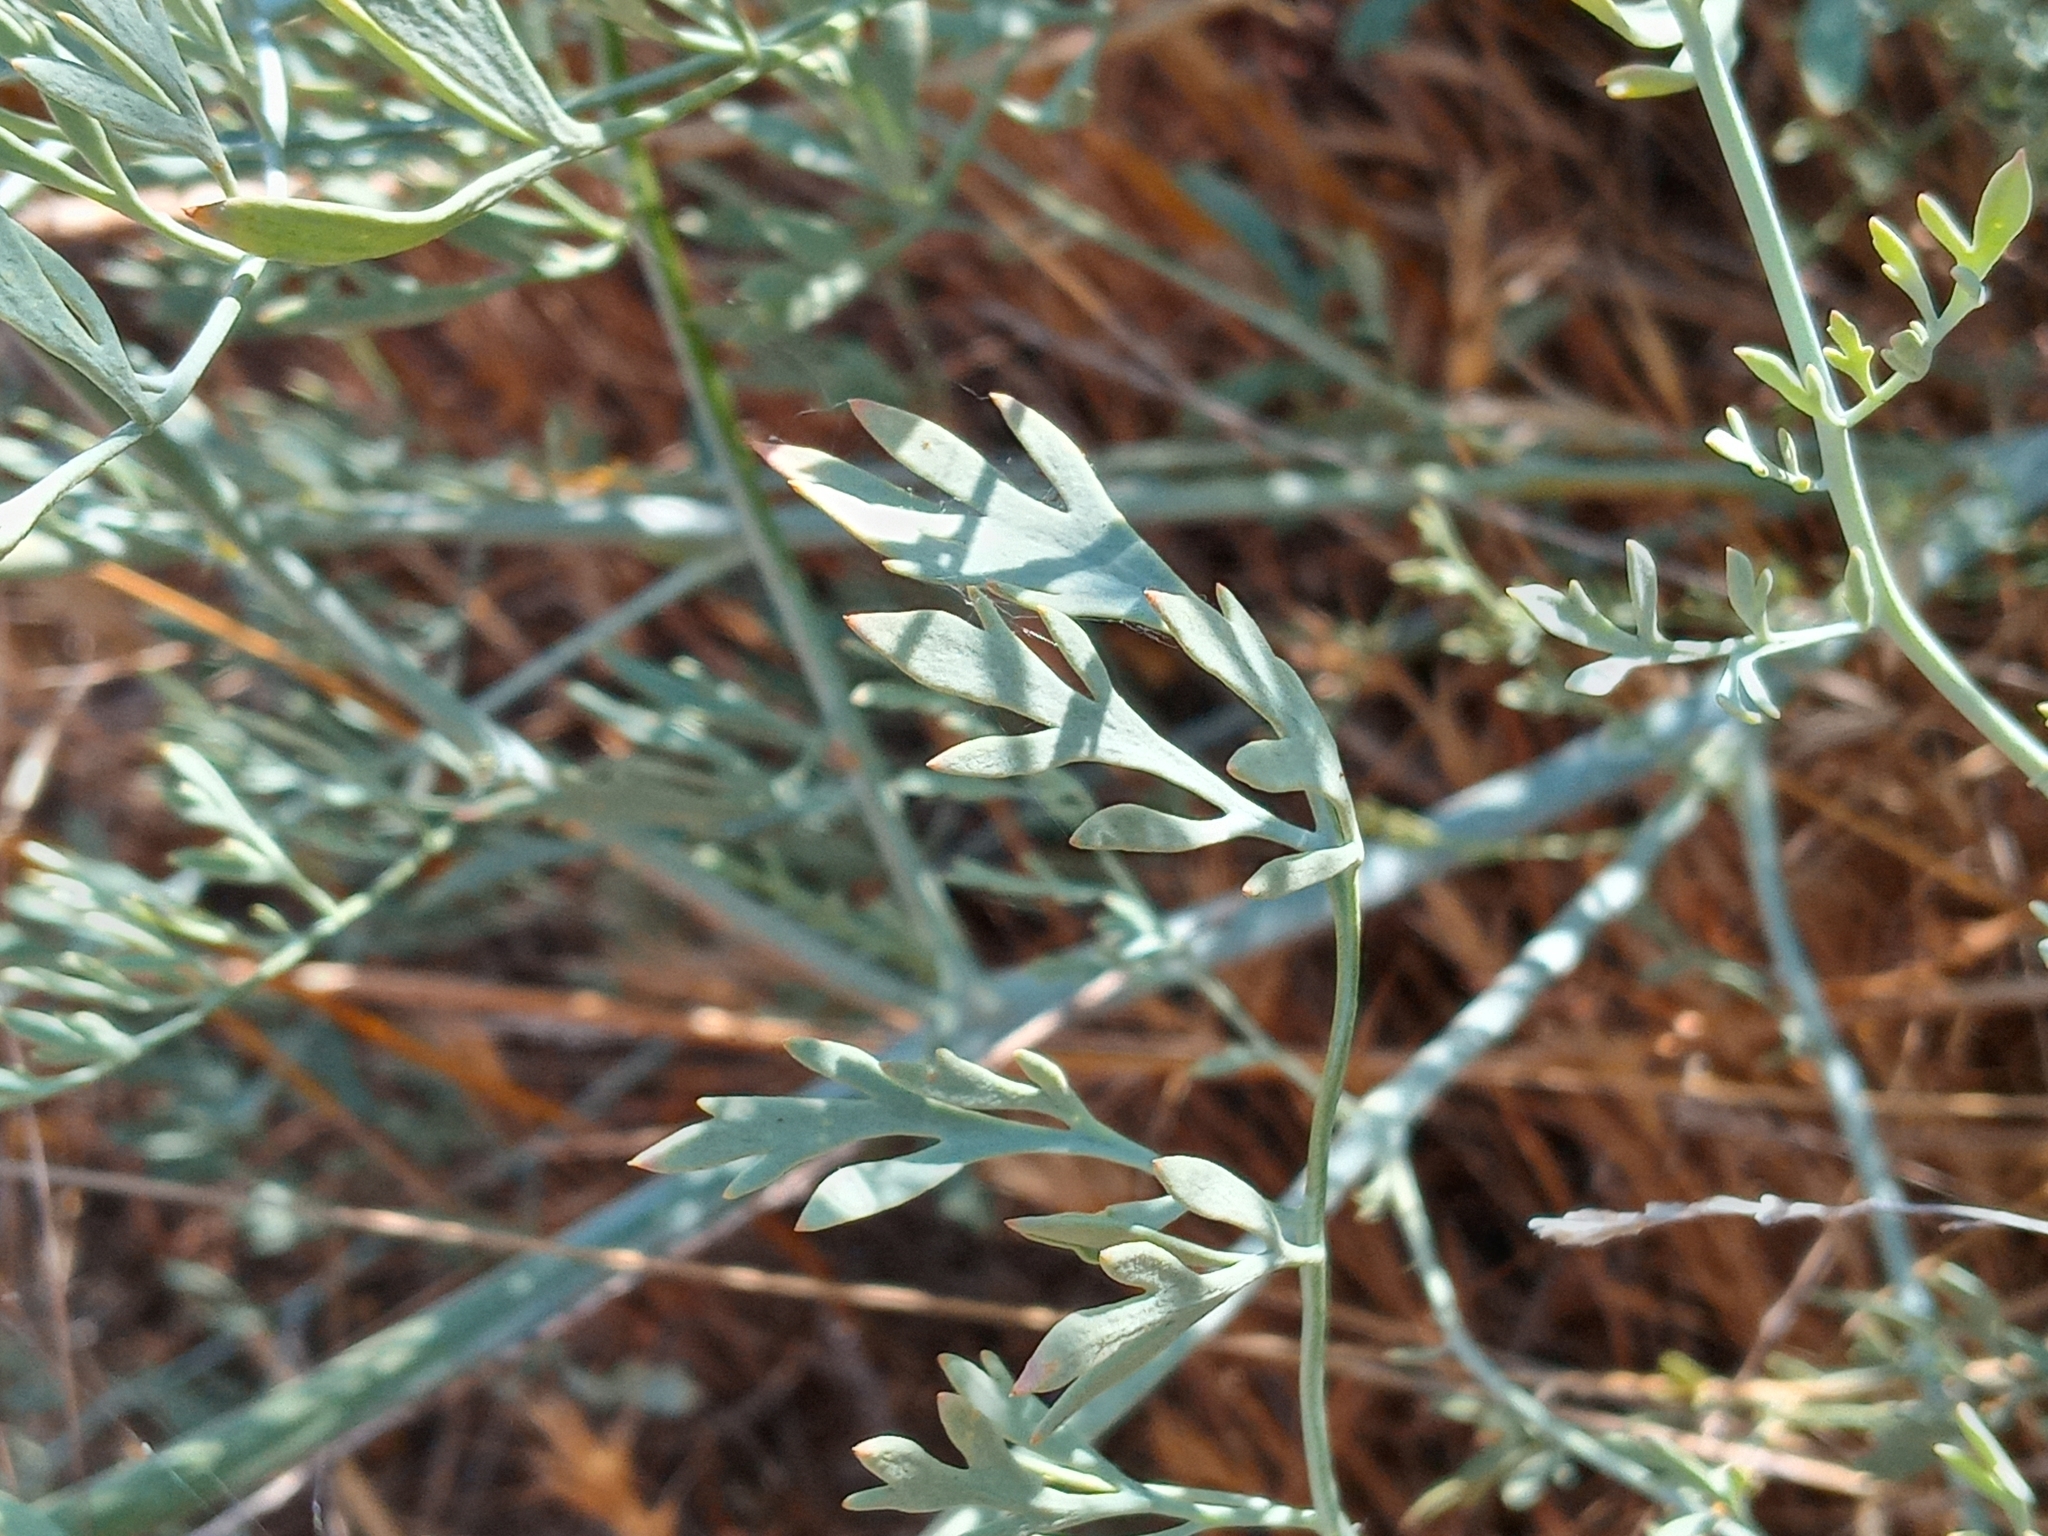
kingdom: Plantae
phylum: Tracheophyta
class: Magnoliopsida
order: Ranunculales
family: Papaveraceae
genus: Ehrendorferia
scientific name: Ehrendorferia chrysantha
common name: Golden eardrops
